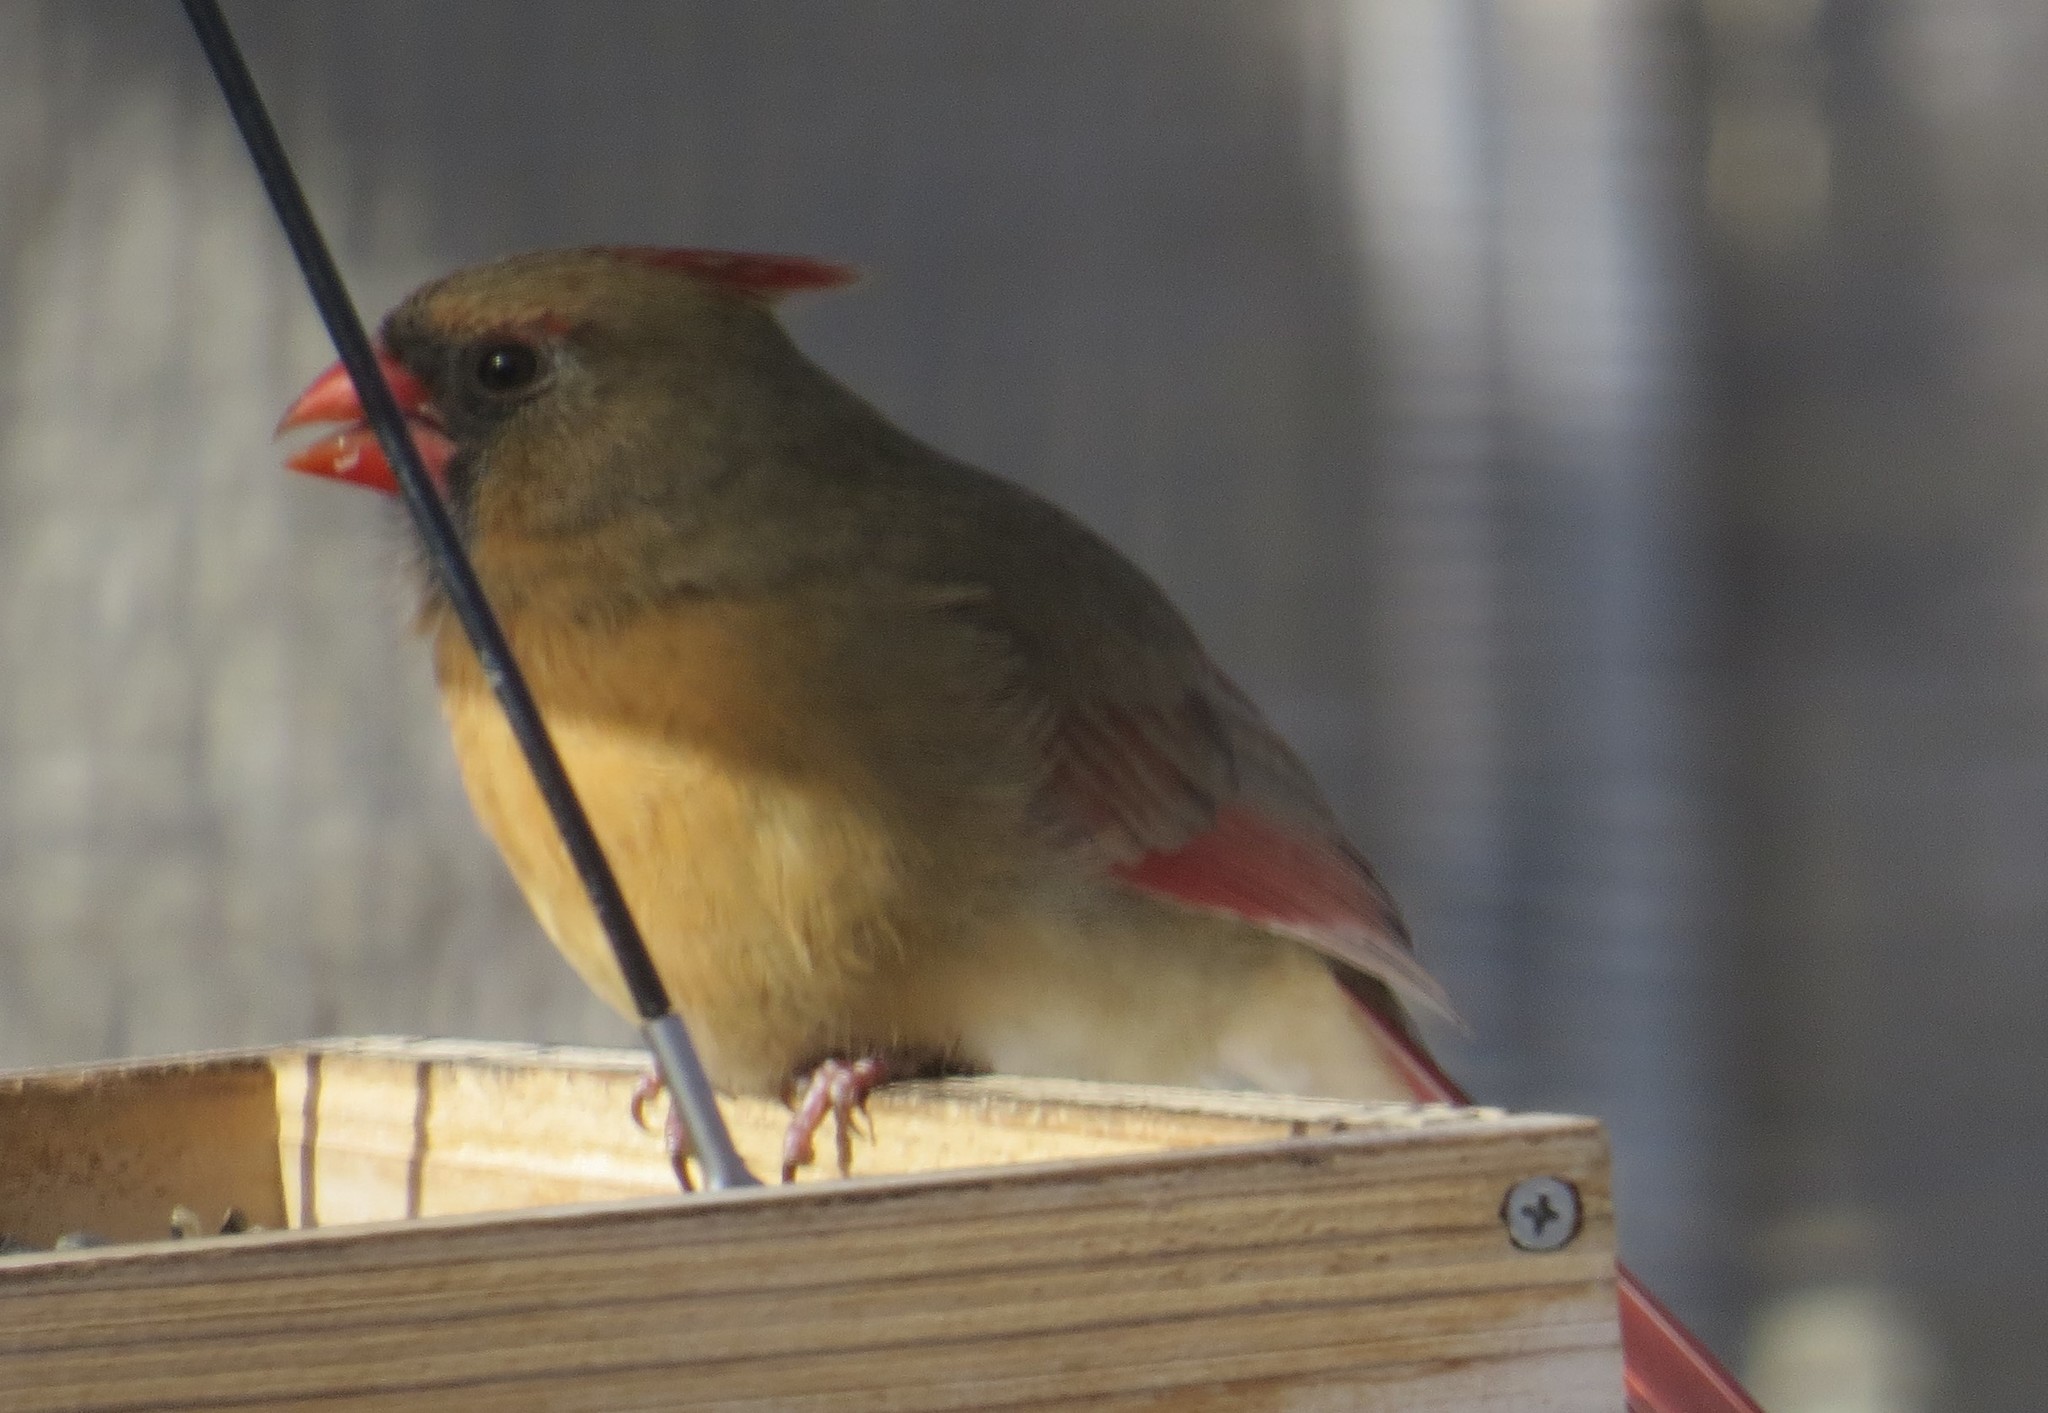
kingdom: Animalia
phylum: Chordata
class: Aves
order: Passeriformes
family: Cardinalidae
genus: Cardinalis
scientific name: Cardinalis cardinalis
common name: Northern cardinal
